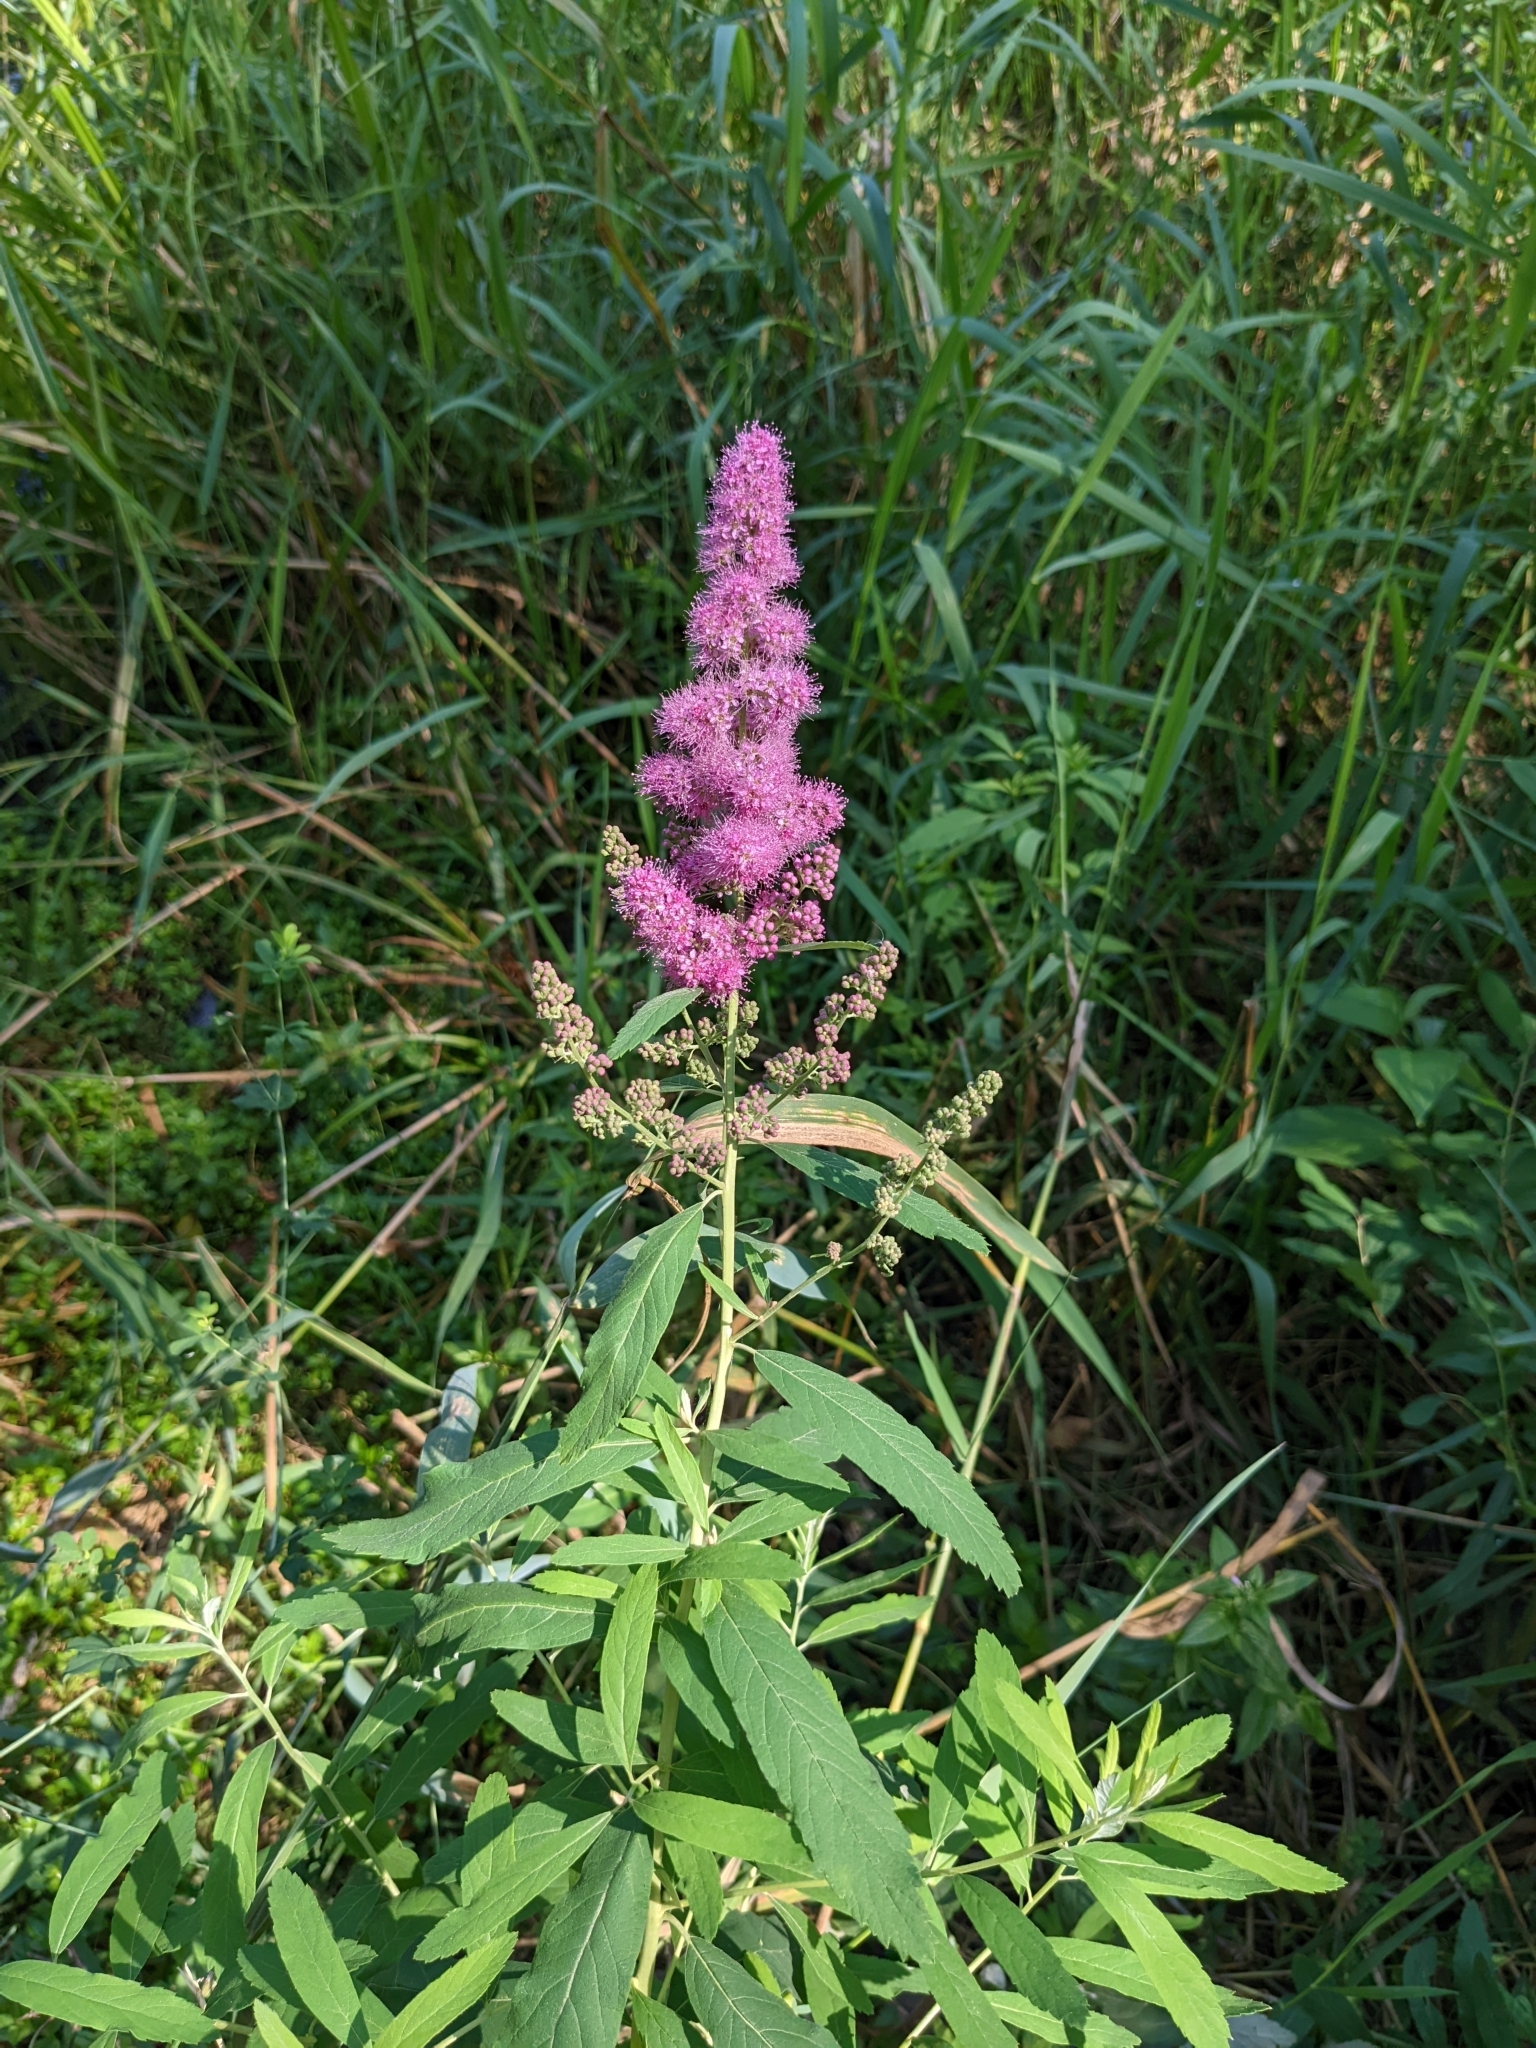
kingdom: Plantae
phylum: Tracheophyta
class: Magnoliopsida
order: Rosales
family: Rosaceae
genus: Spiraea
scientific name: Spiraea douglasii
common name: Steeplebush
